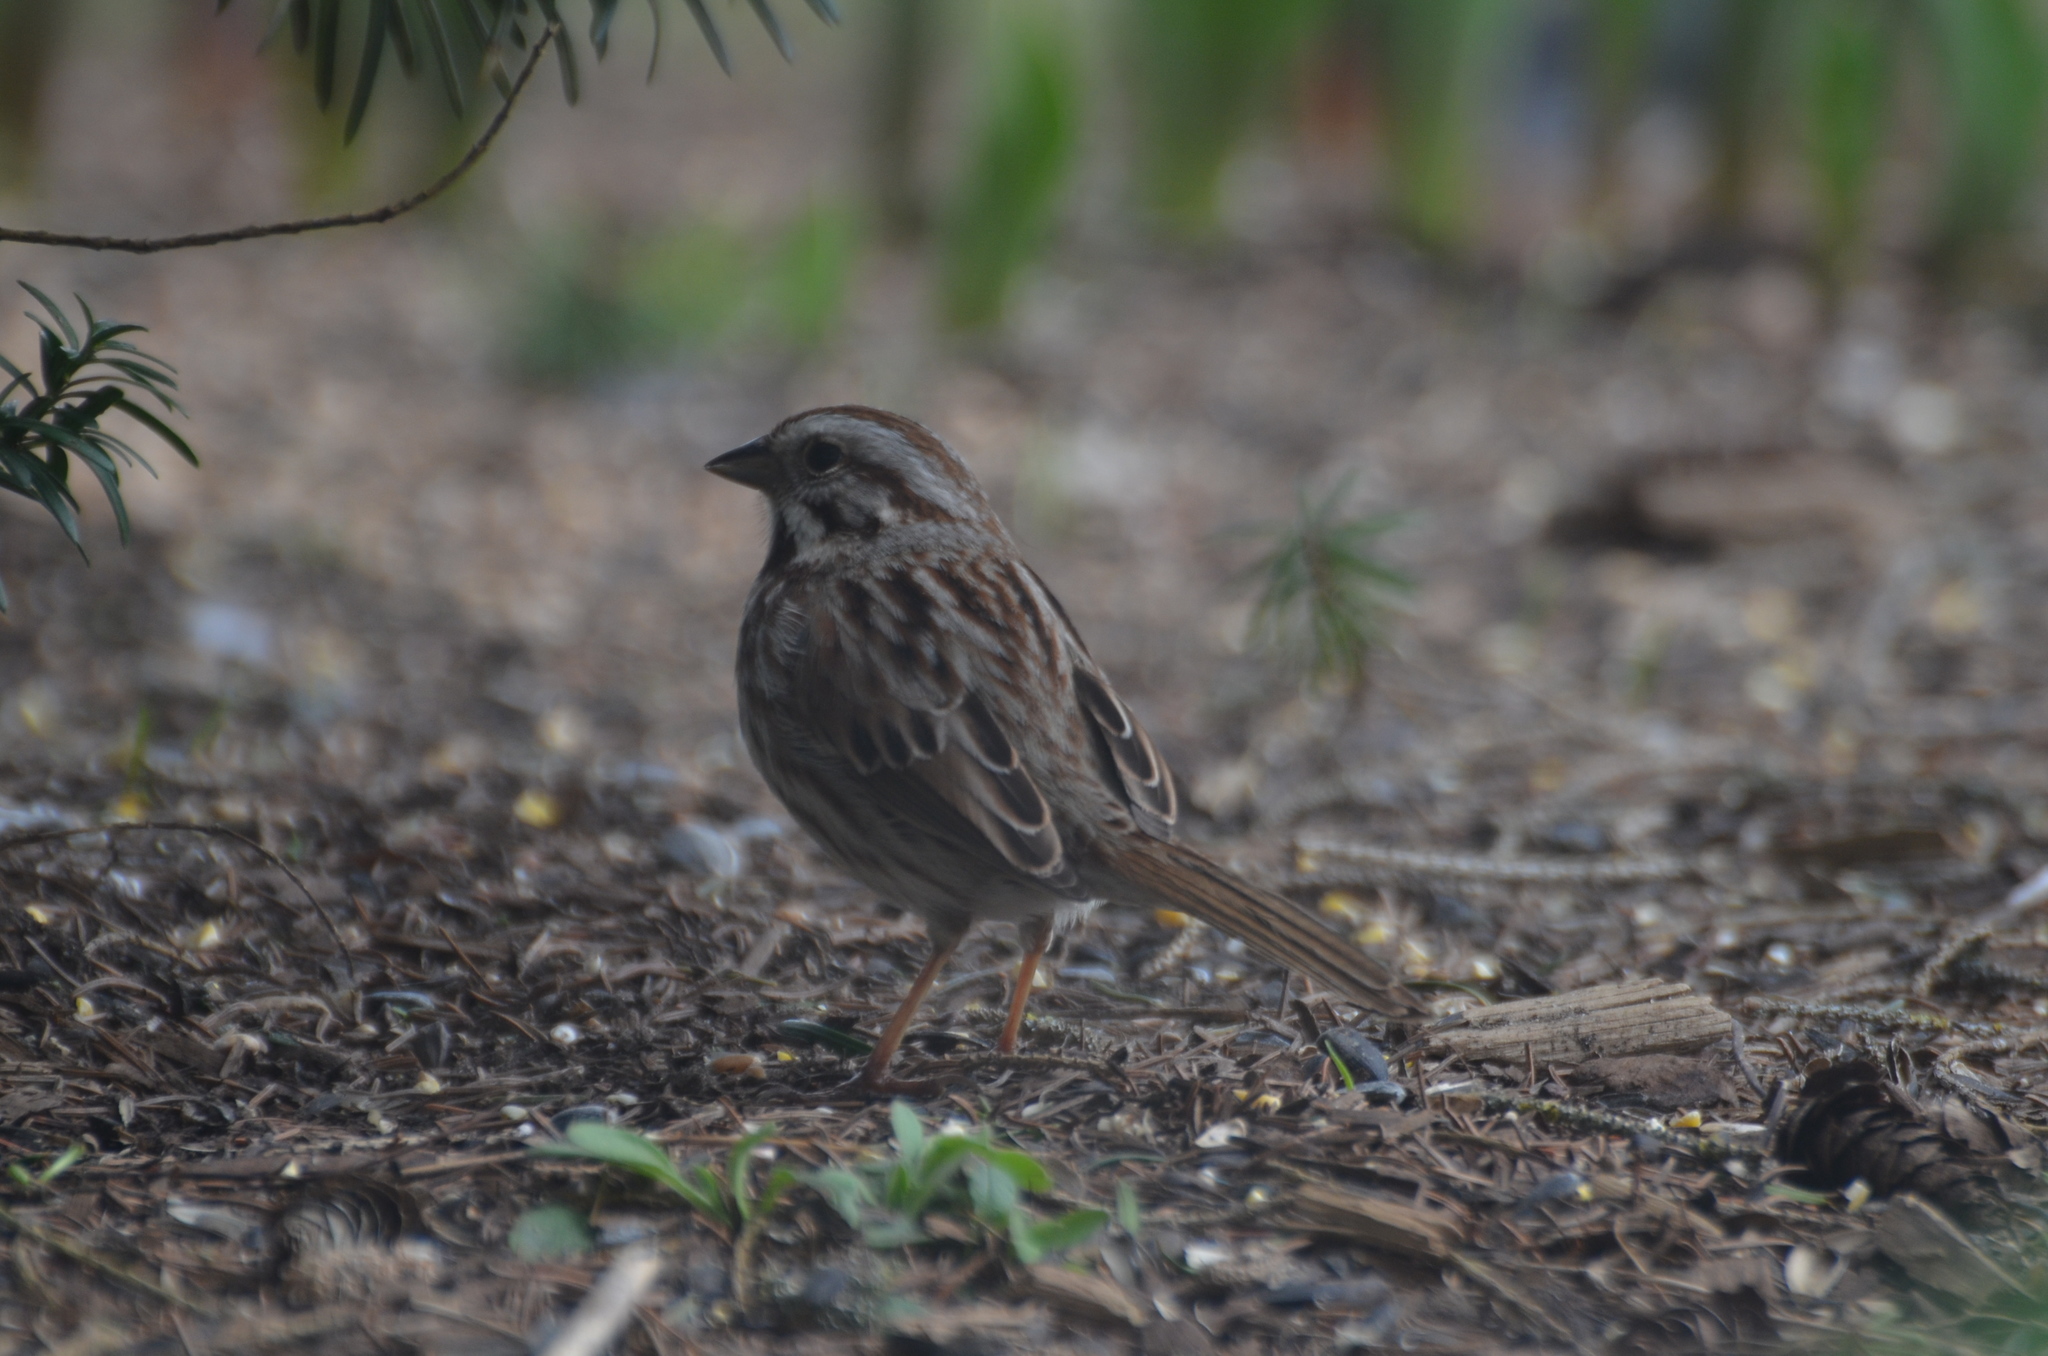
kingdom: Animalia
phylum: Chordata
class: Aves
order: Passeriformes
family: Passerellidae
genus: Melospiza
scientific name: Melospiza melodia
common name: Song sparrow
